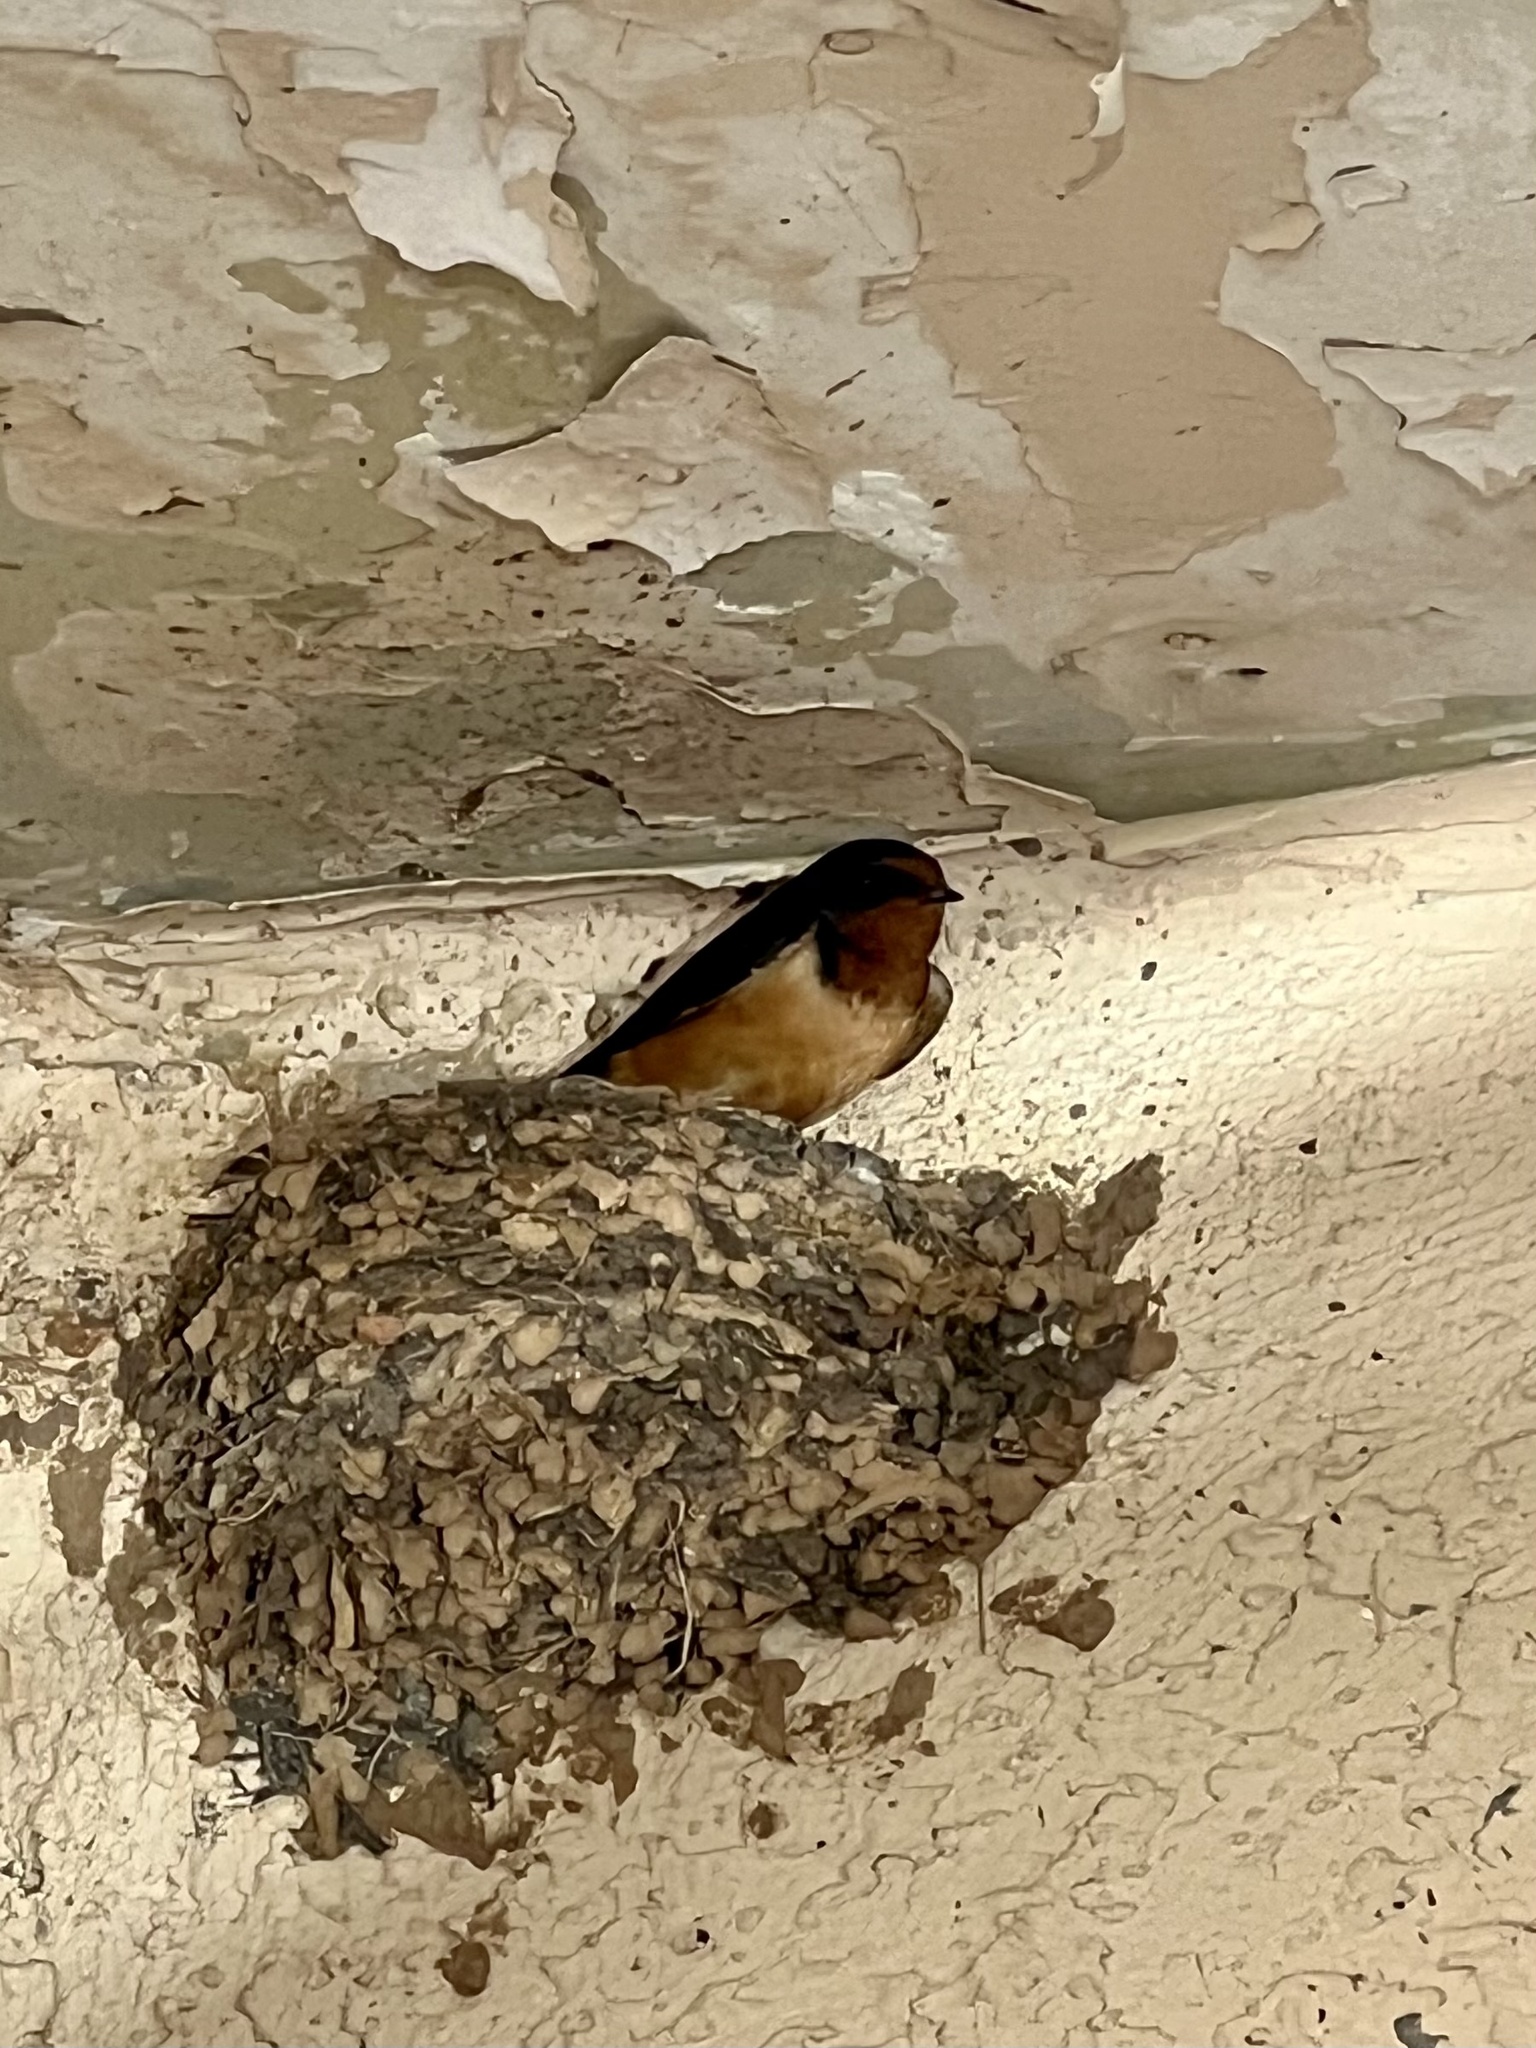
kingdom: Animalia
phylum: Chordata
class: Aves
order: Passeriformes
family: Hirundinidae
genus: Hirundo
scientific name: Hirundo rustica
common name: Barn swallow
